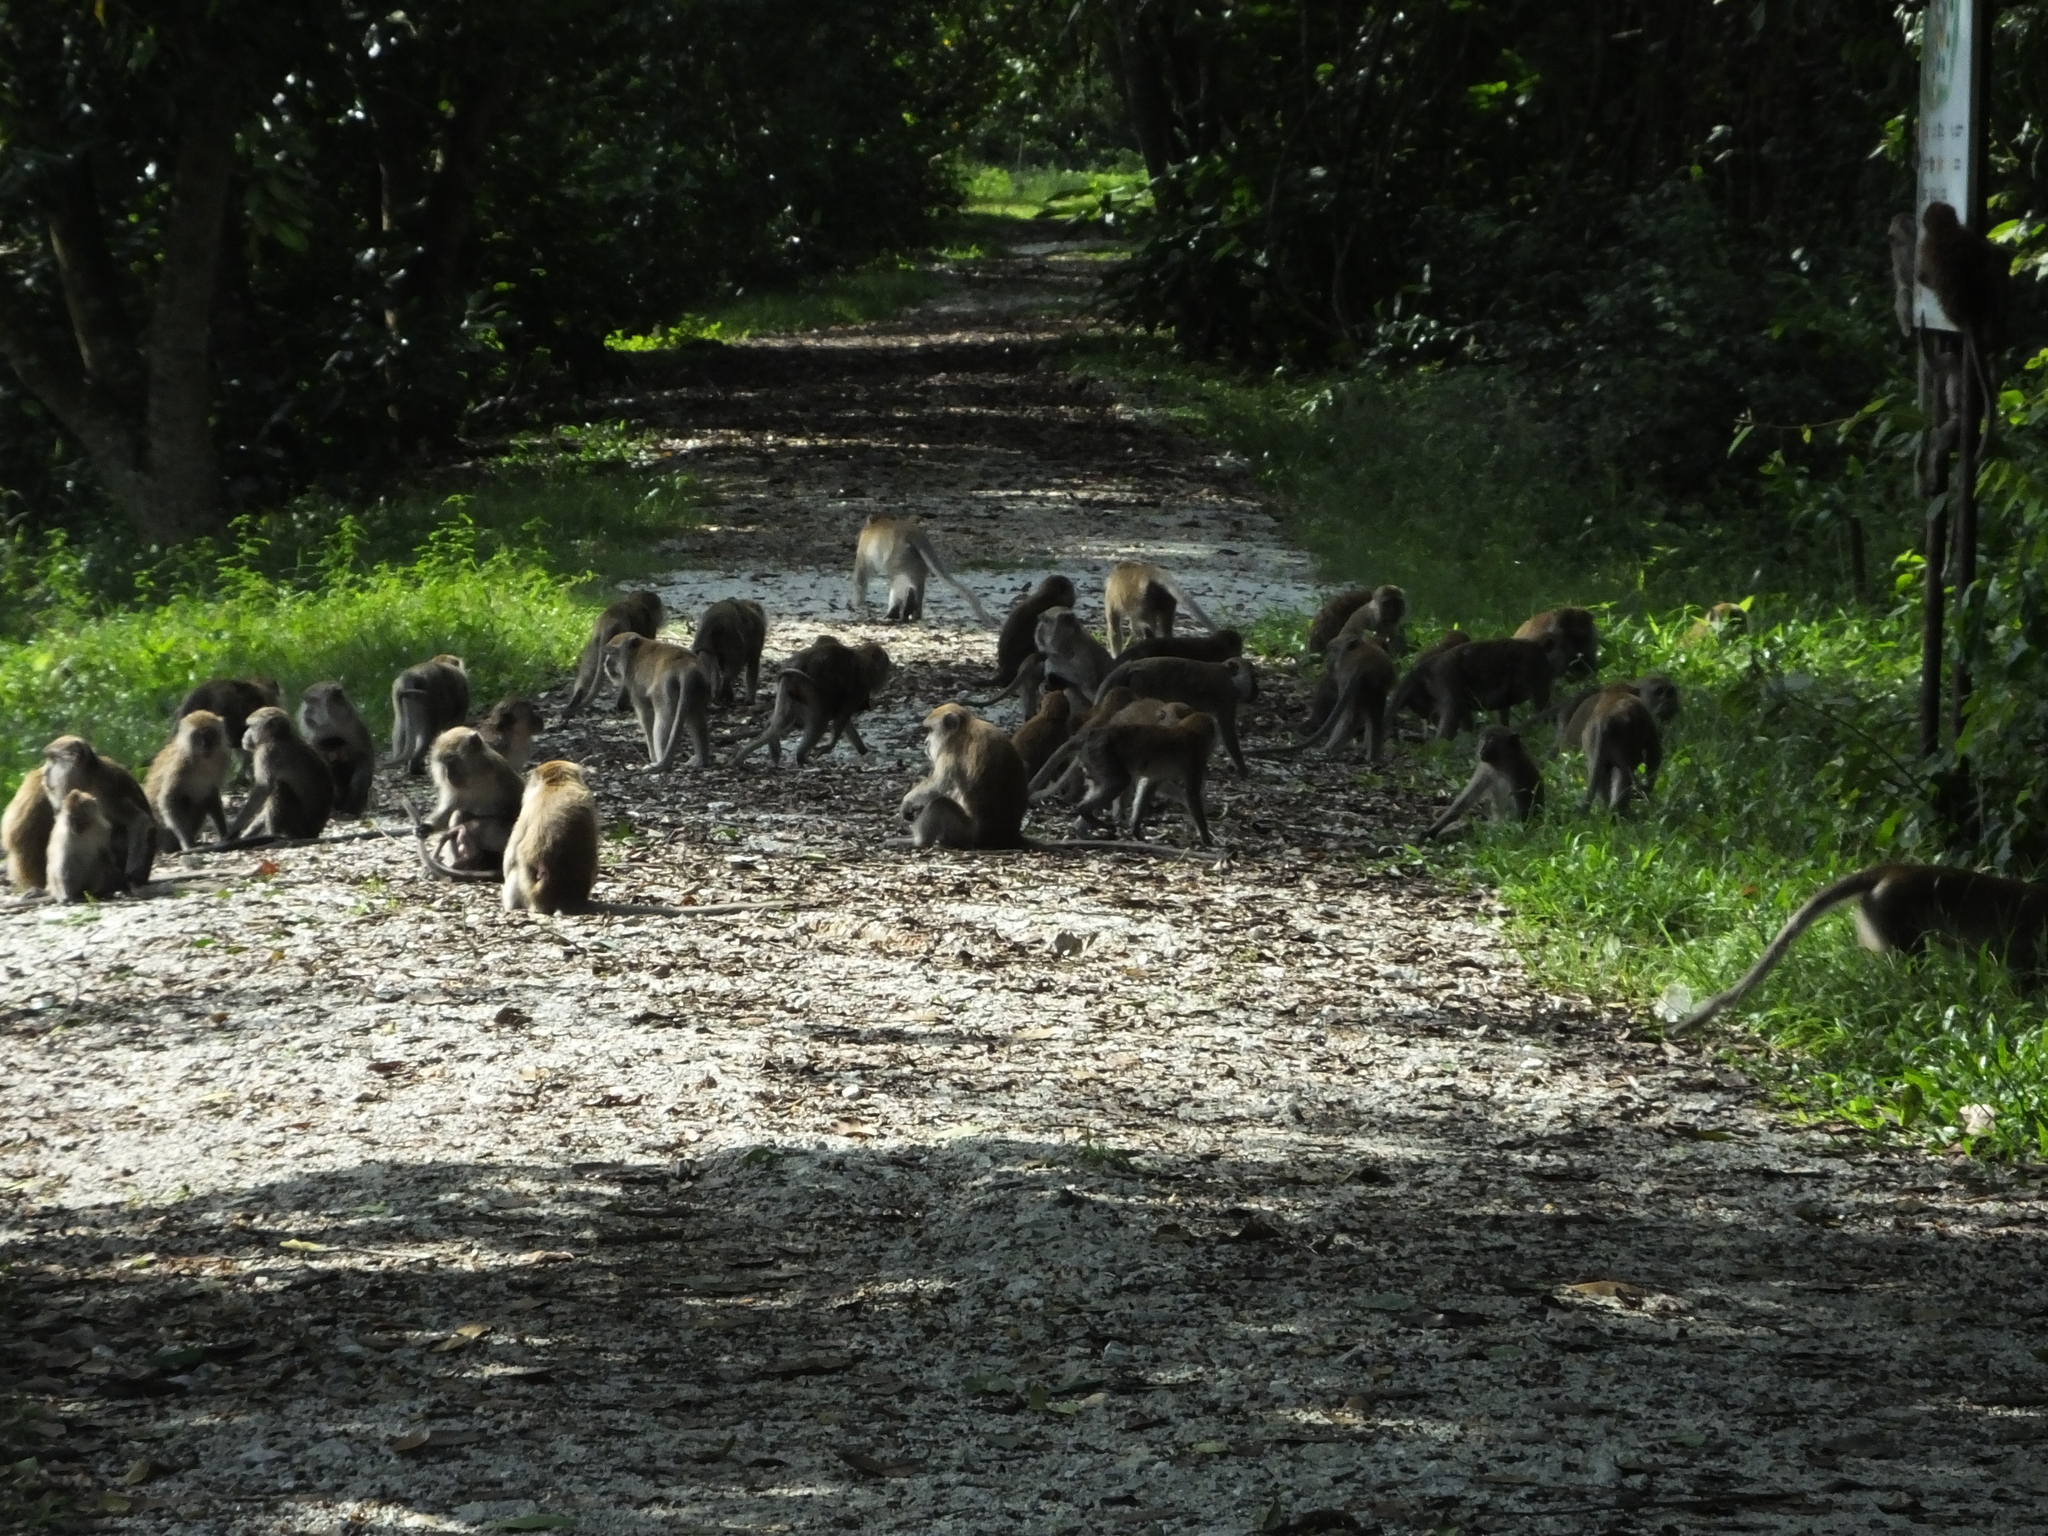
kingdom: Animalia
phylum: Chordata
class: Mammalia
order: Primates
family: Cercopithecidae
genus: Macaca
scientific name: Macaca fascicularis
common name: Crab-eating macaque
